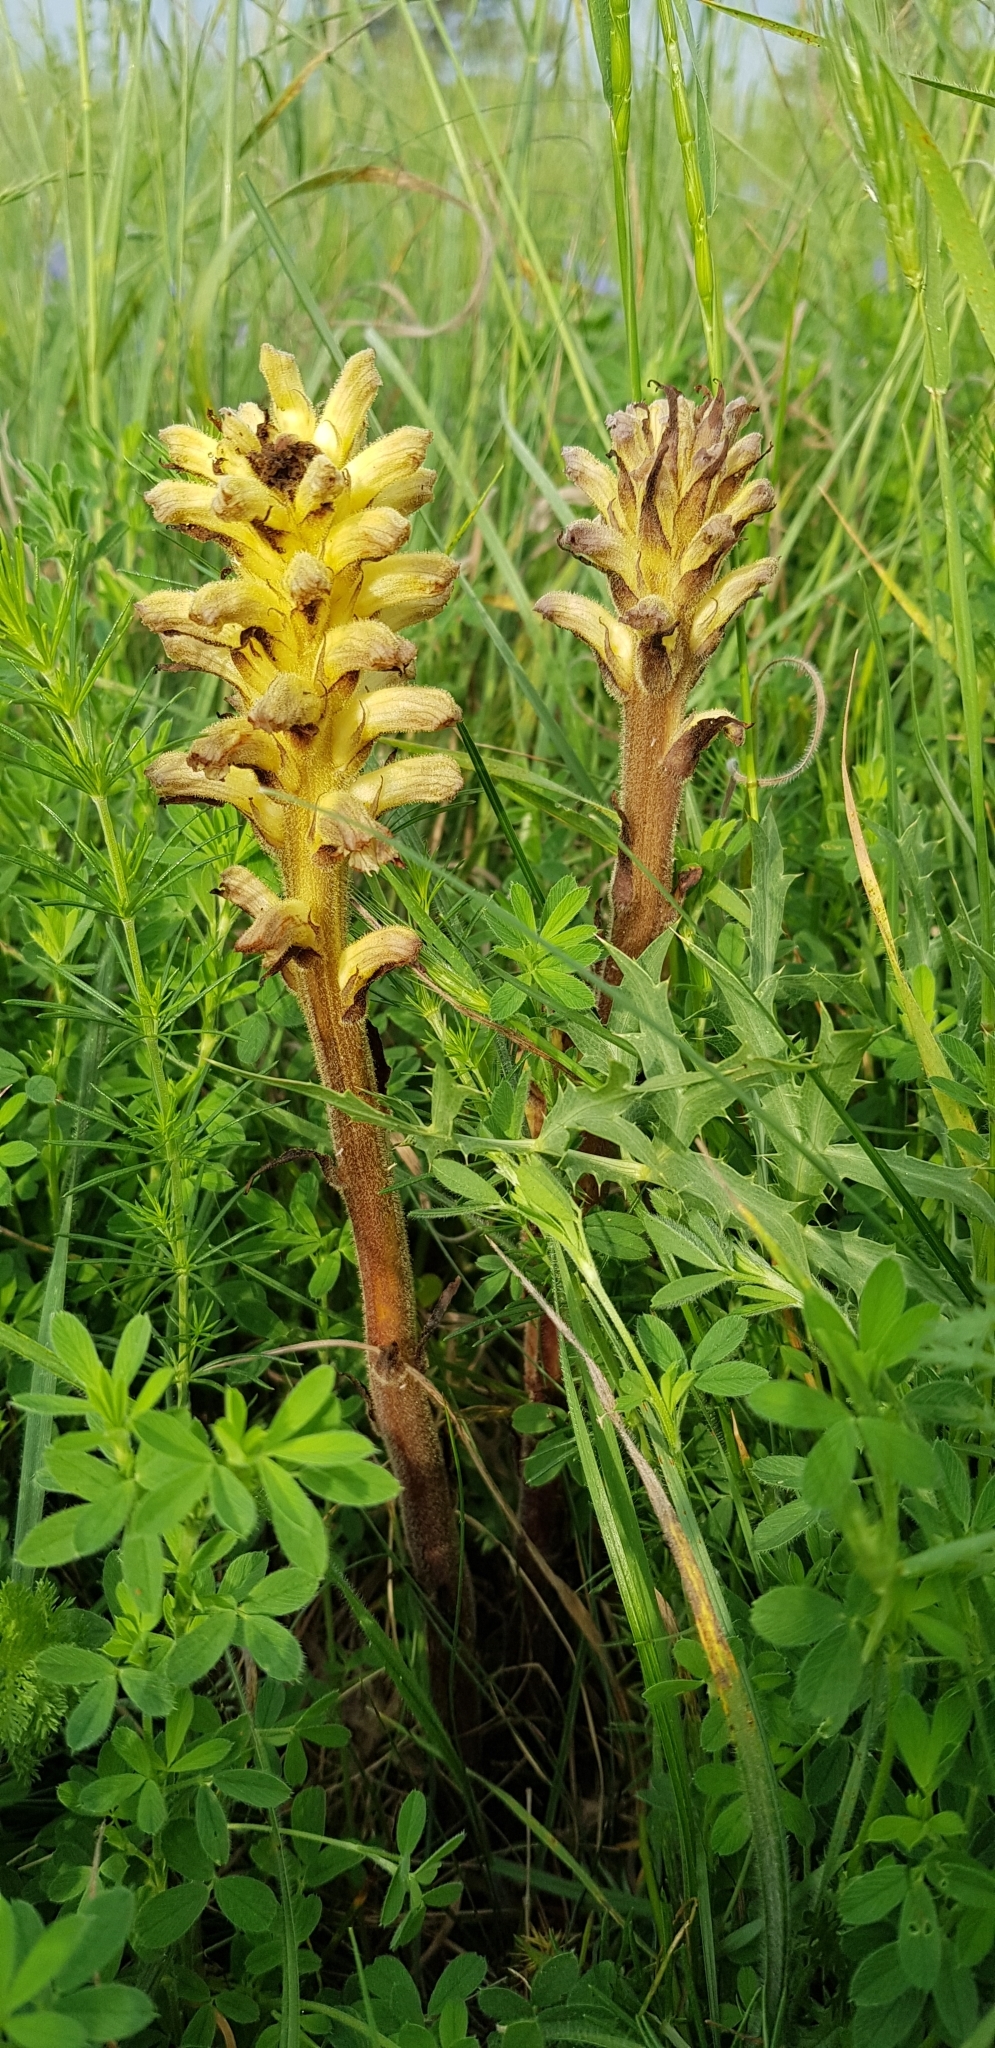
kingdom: Plantae
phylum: Tracheophyta
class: Magnoliopsida
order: Lamiales
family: Orobanchaceae
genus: Orobanche
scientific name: Orobanche lutea
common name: Yellow broomrape
